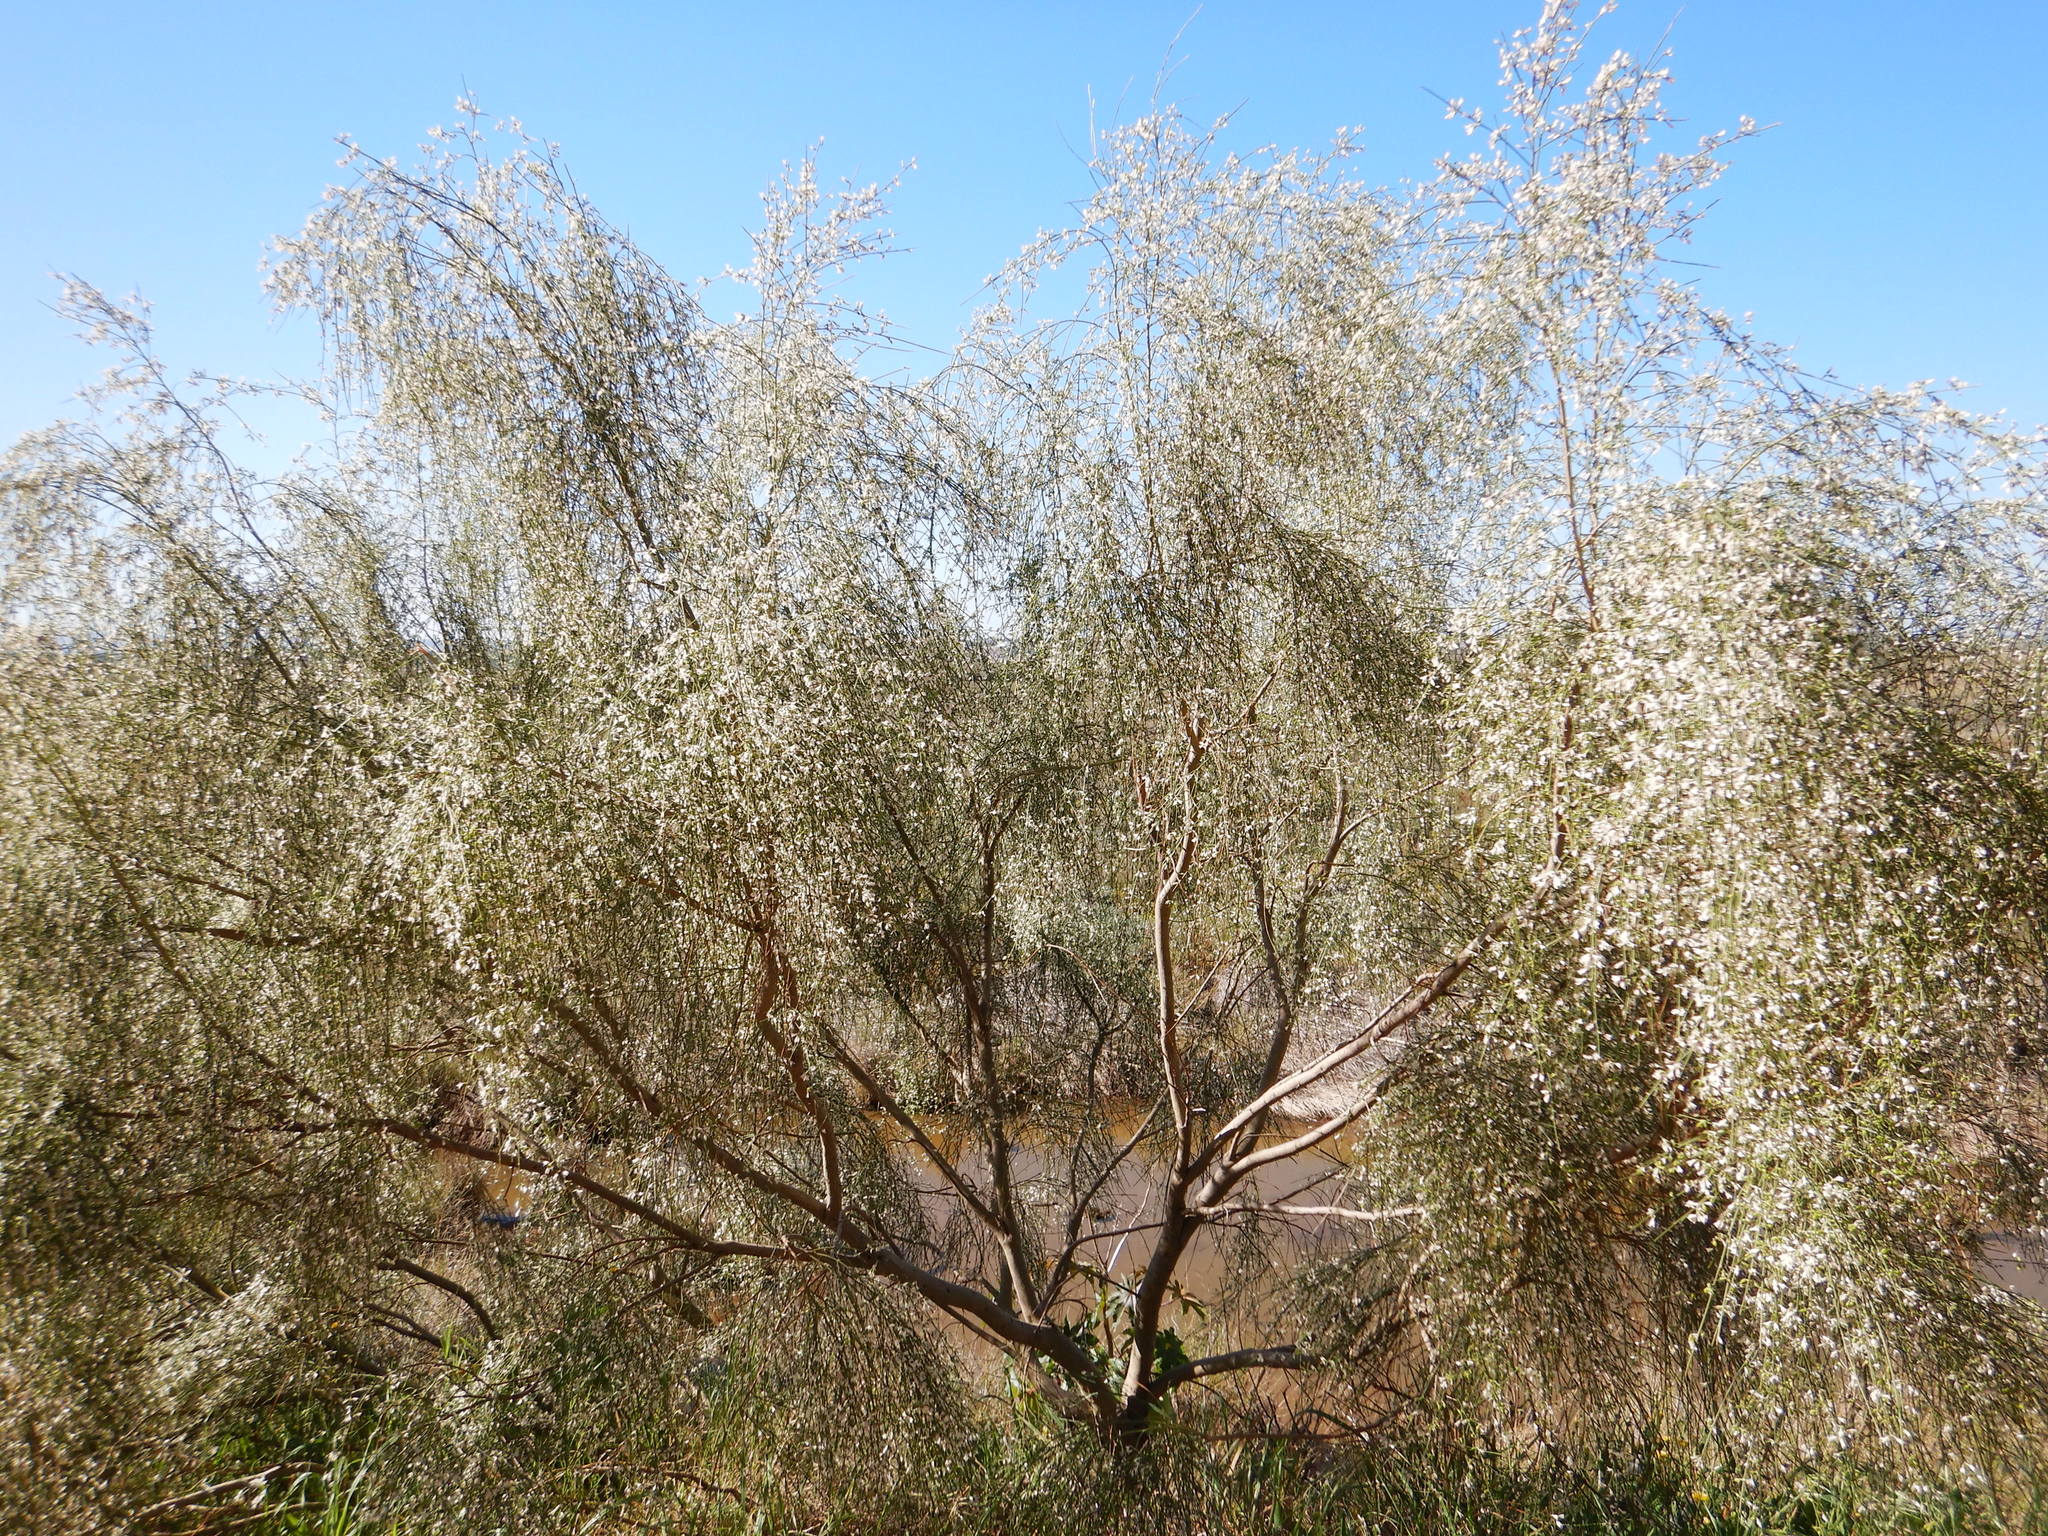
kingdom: Plantae
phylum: Tracheophyta
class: Magnoliopsida
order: Fabales
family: Fabaceae
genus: Retama
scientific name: Retama monosperma
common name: Bridal broom
